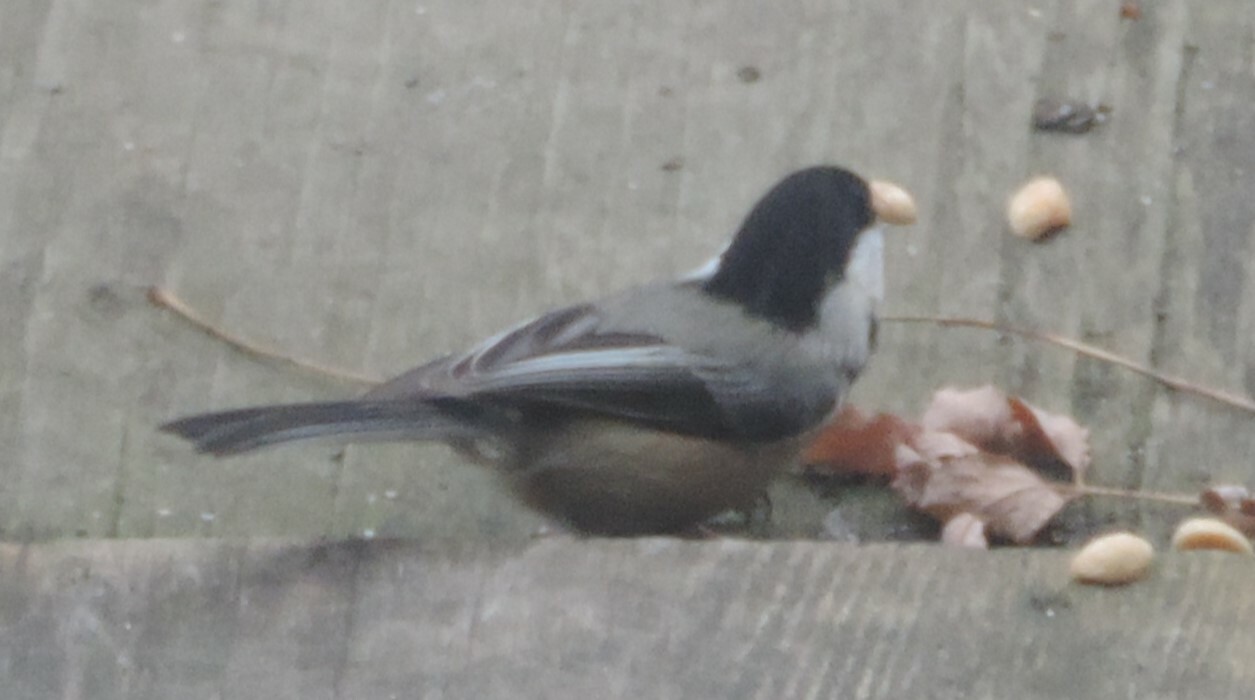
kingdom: Animalia
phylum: Chordata
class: Aves
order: Passeriformes
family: Paridae
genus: Poecile
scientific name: Poecile atricapillus
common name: Black-capped chickadee
